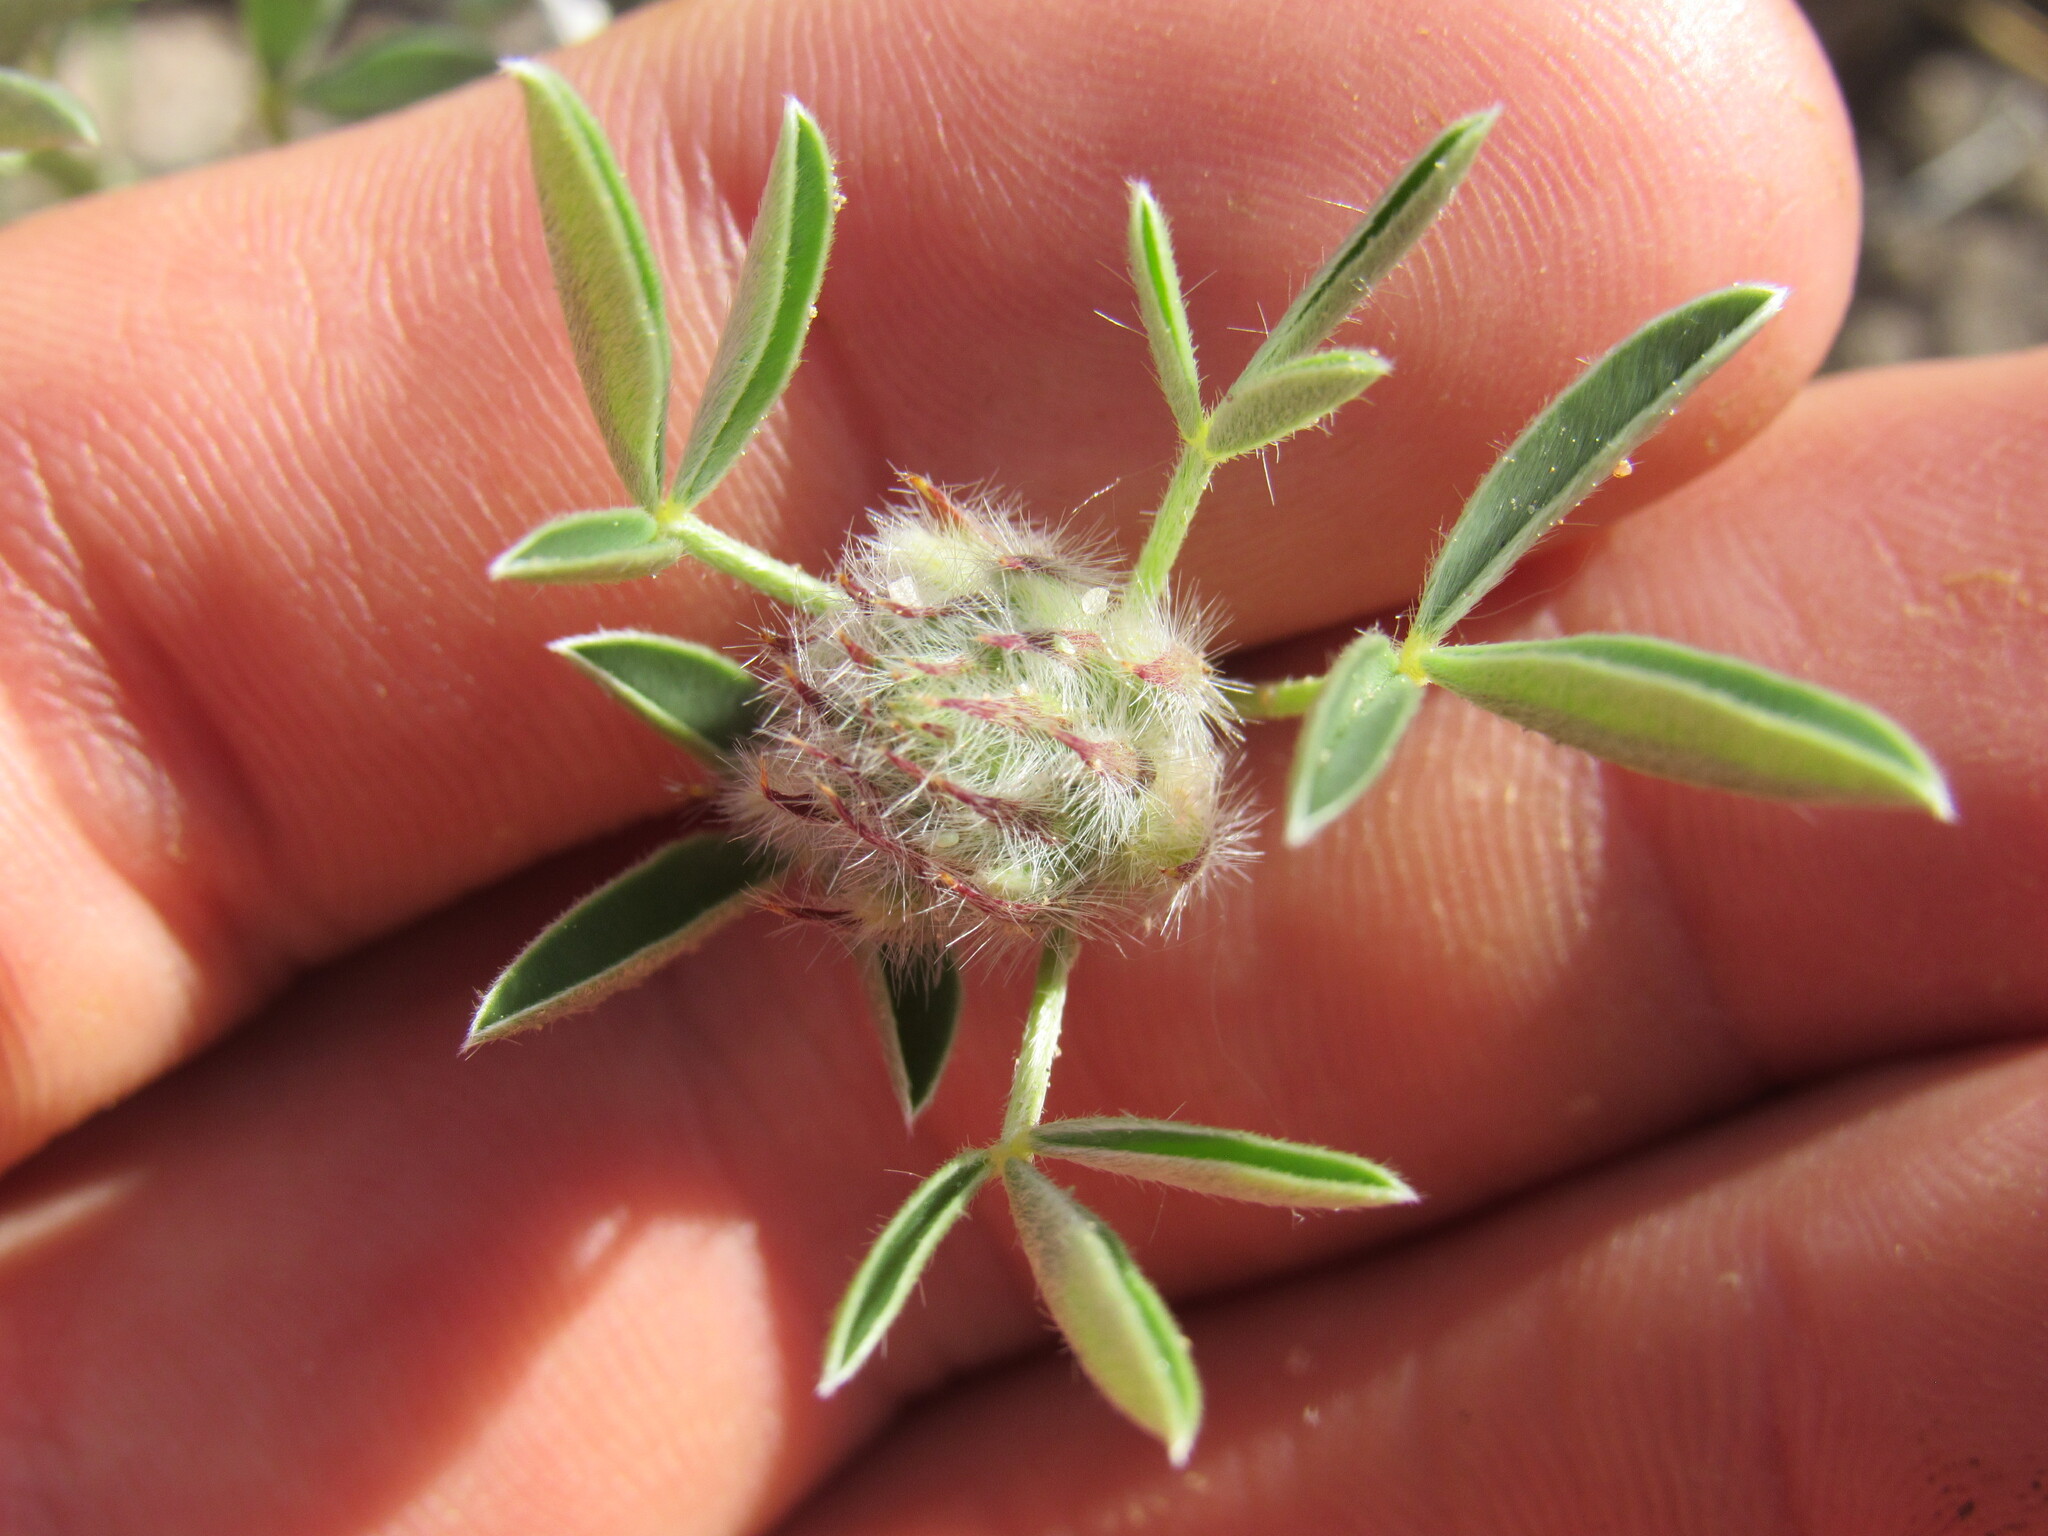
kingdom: Plantae
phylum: Tracheophyta
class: Magnoliopsida
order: Fabales
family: Fabaceae
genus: Dalea
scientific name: Dalea jamesii
